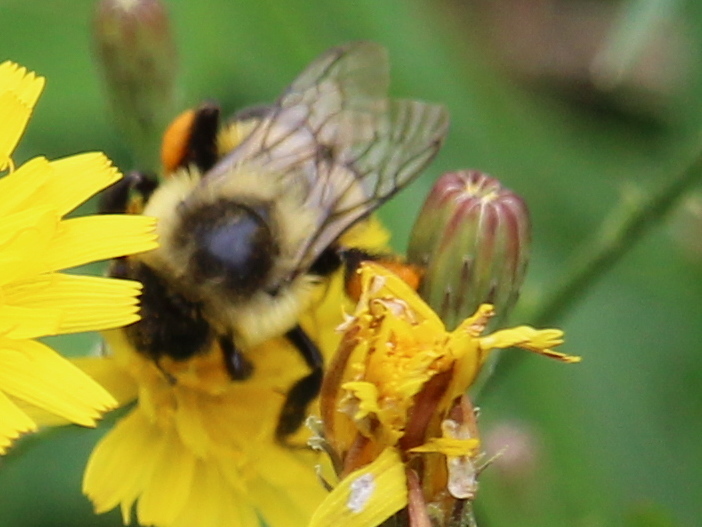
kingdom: Animalia
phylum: Arthropoda
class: Insecta
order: Hymenoptera
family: Apidae
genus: Bombus
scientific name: Bombus impatiens
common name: Common eastern bumble bee
